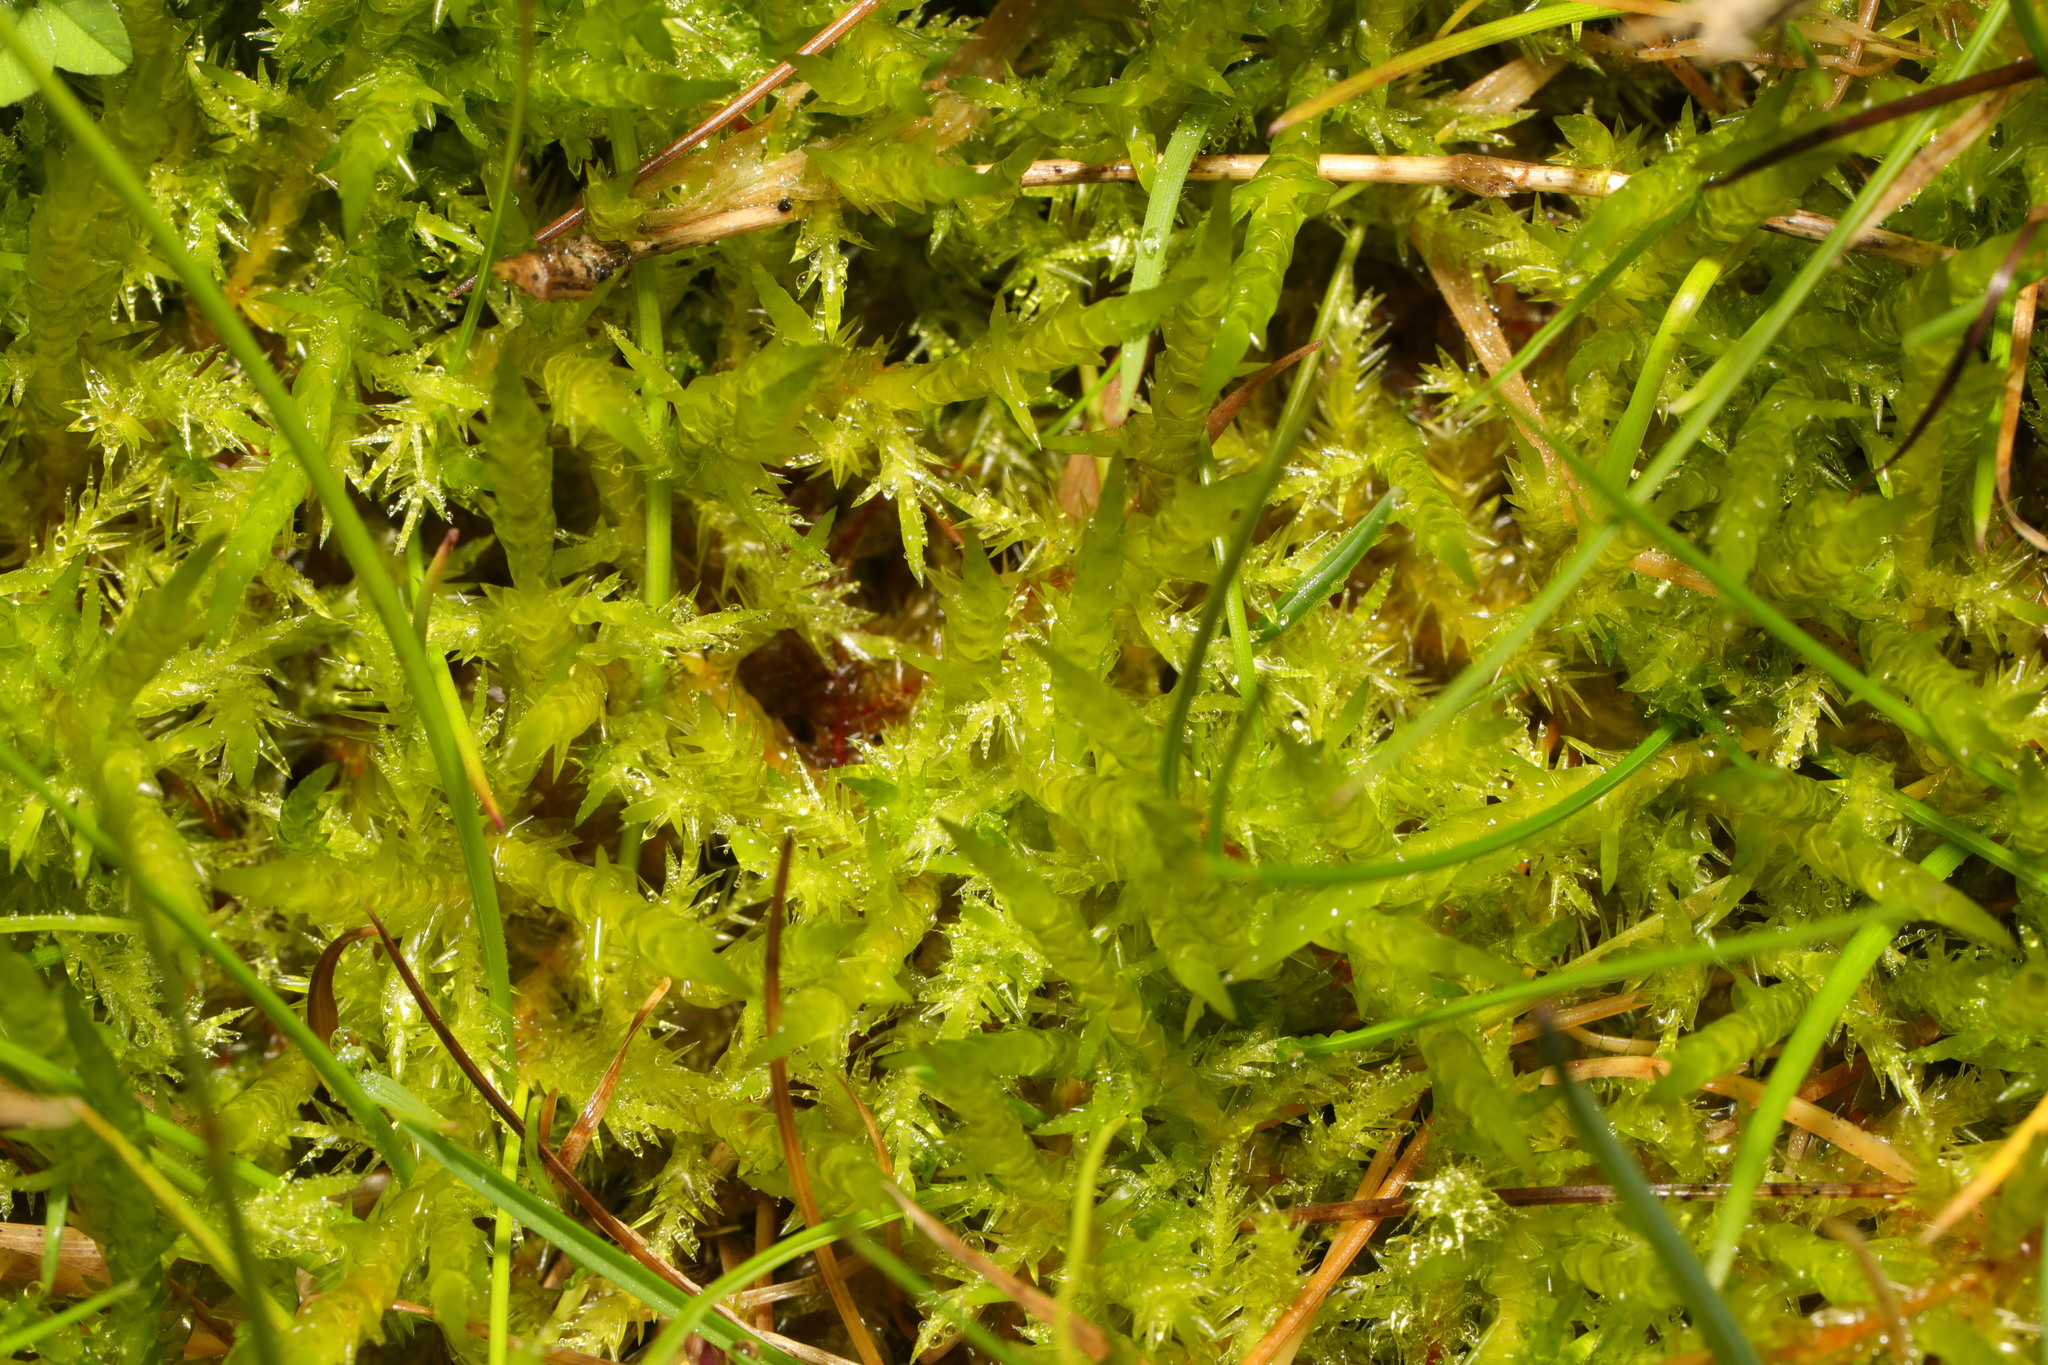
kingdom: Plantae
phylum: Bryophyta
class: Bryopsida
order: Hypnales
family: Pylaisiaceae
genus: Calliergonella
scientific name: Calliergonella cuspidata
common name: Common large wetland moss
